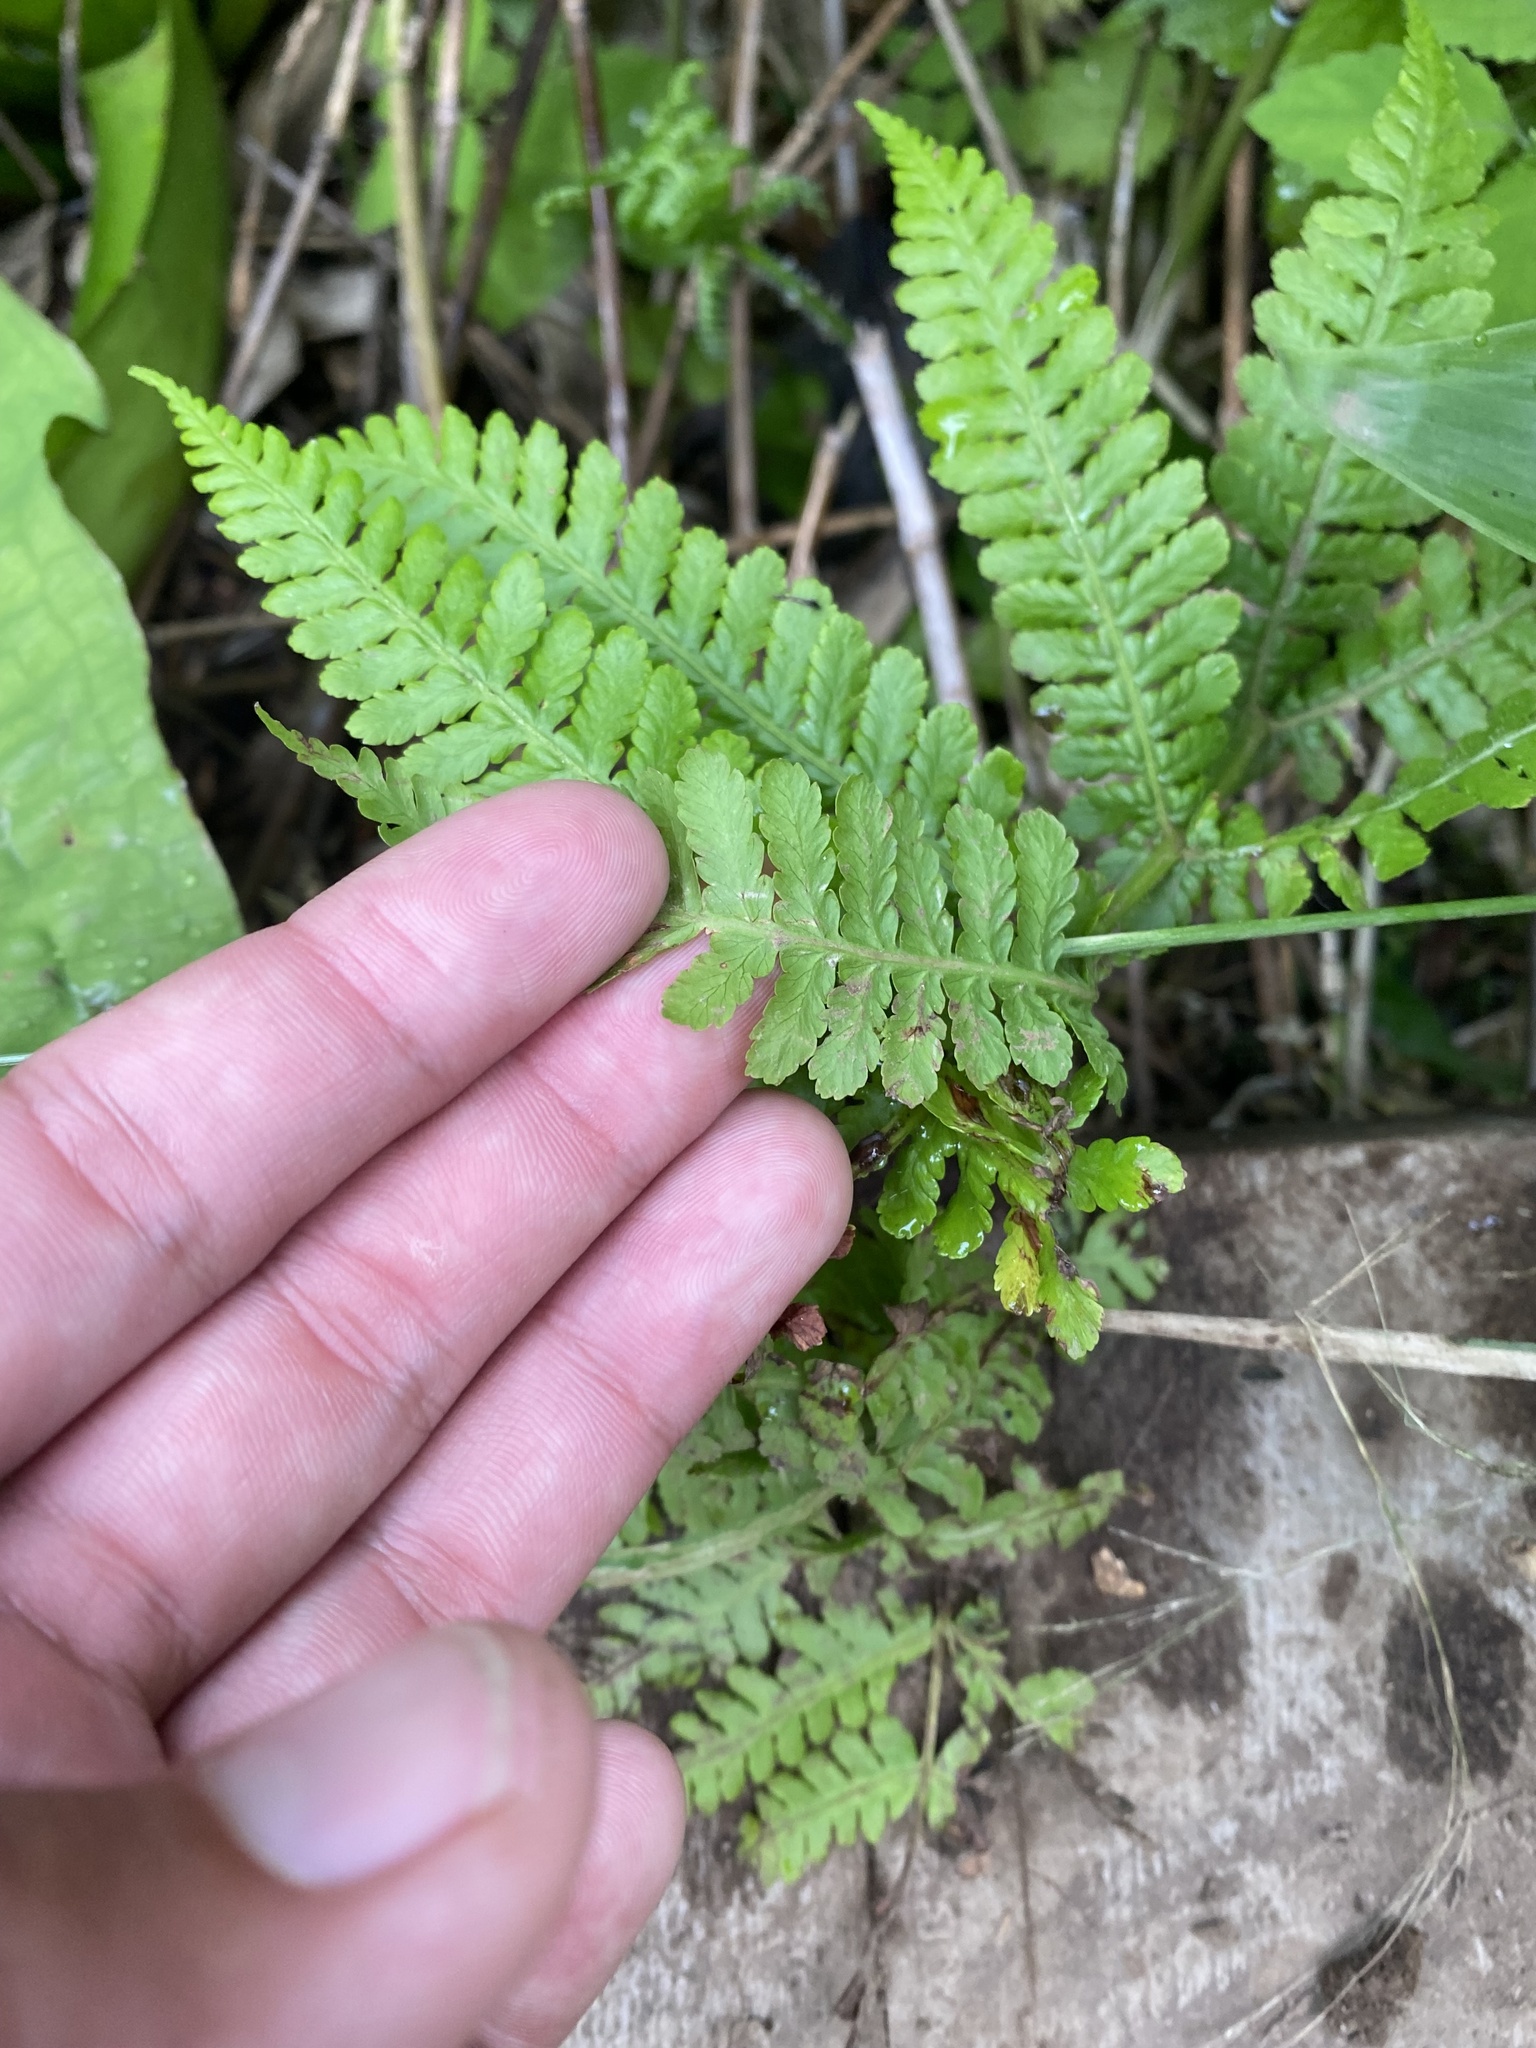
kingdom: Plantae
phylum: Tracheophyta
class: Polypodiopsida
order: Polypodiales
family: Athyriaceae
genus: Deparia
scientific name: Deparia pterorachis
